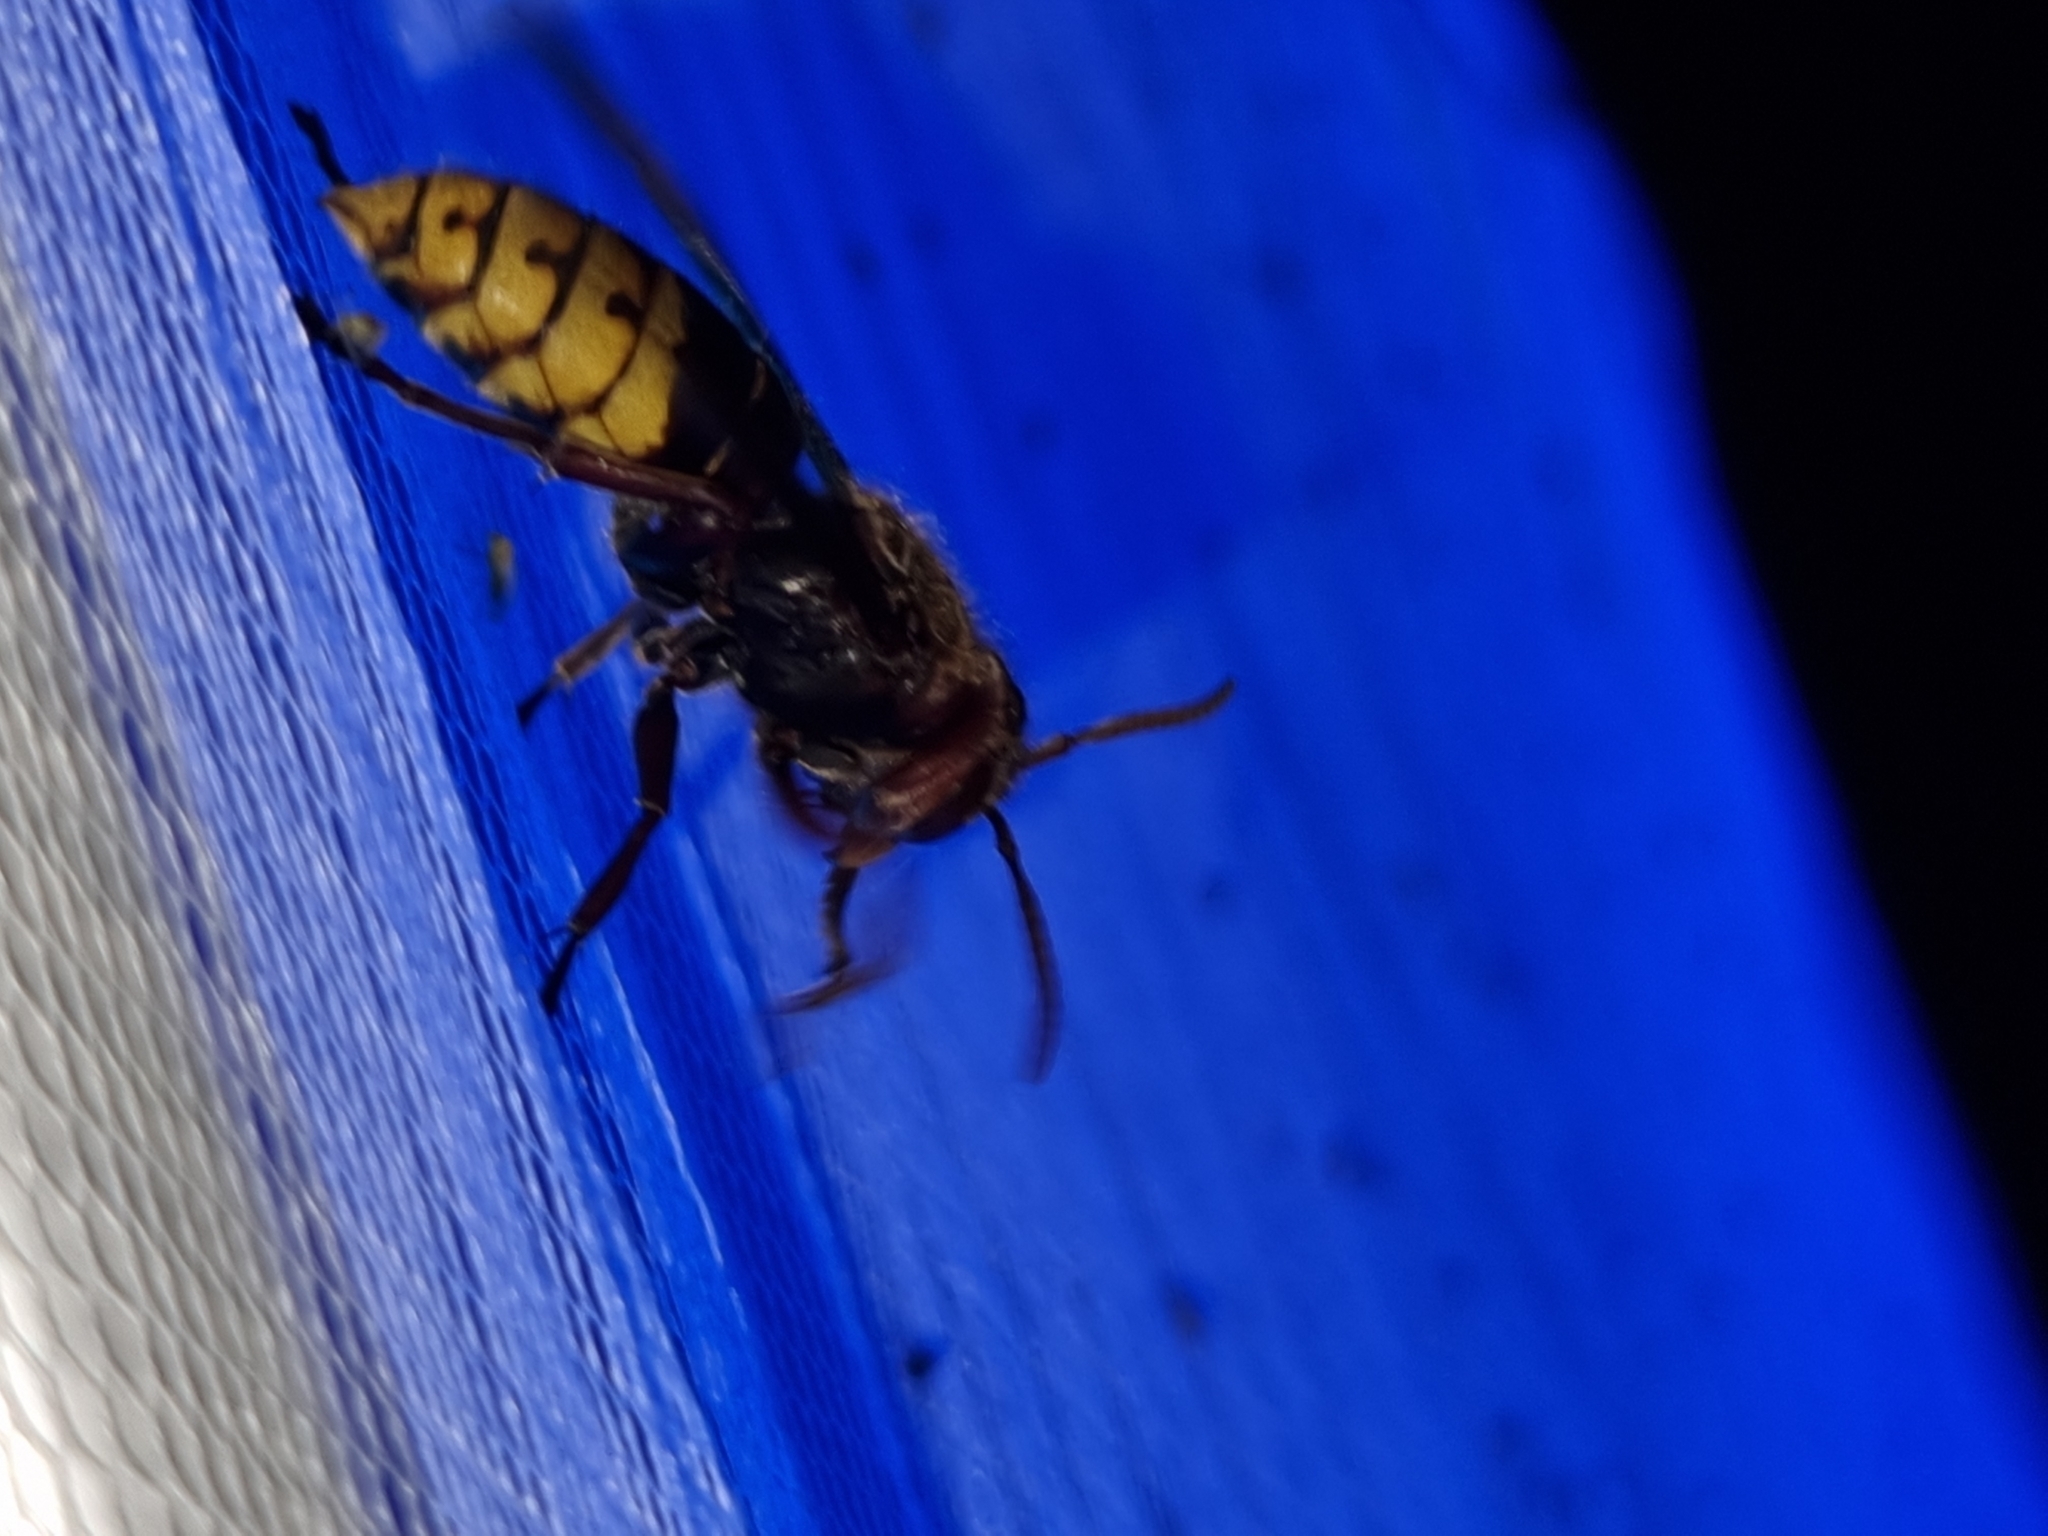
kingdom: Animalia
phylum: Arthropoda
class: Insecta
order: Hymenoptera
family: Vespidae
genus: Vespa
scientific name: Vespa crabro
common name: Hornet
